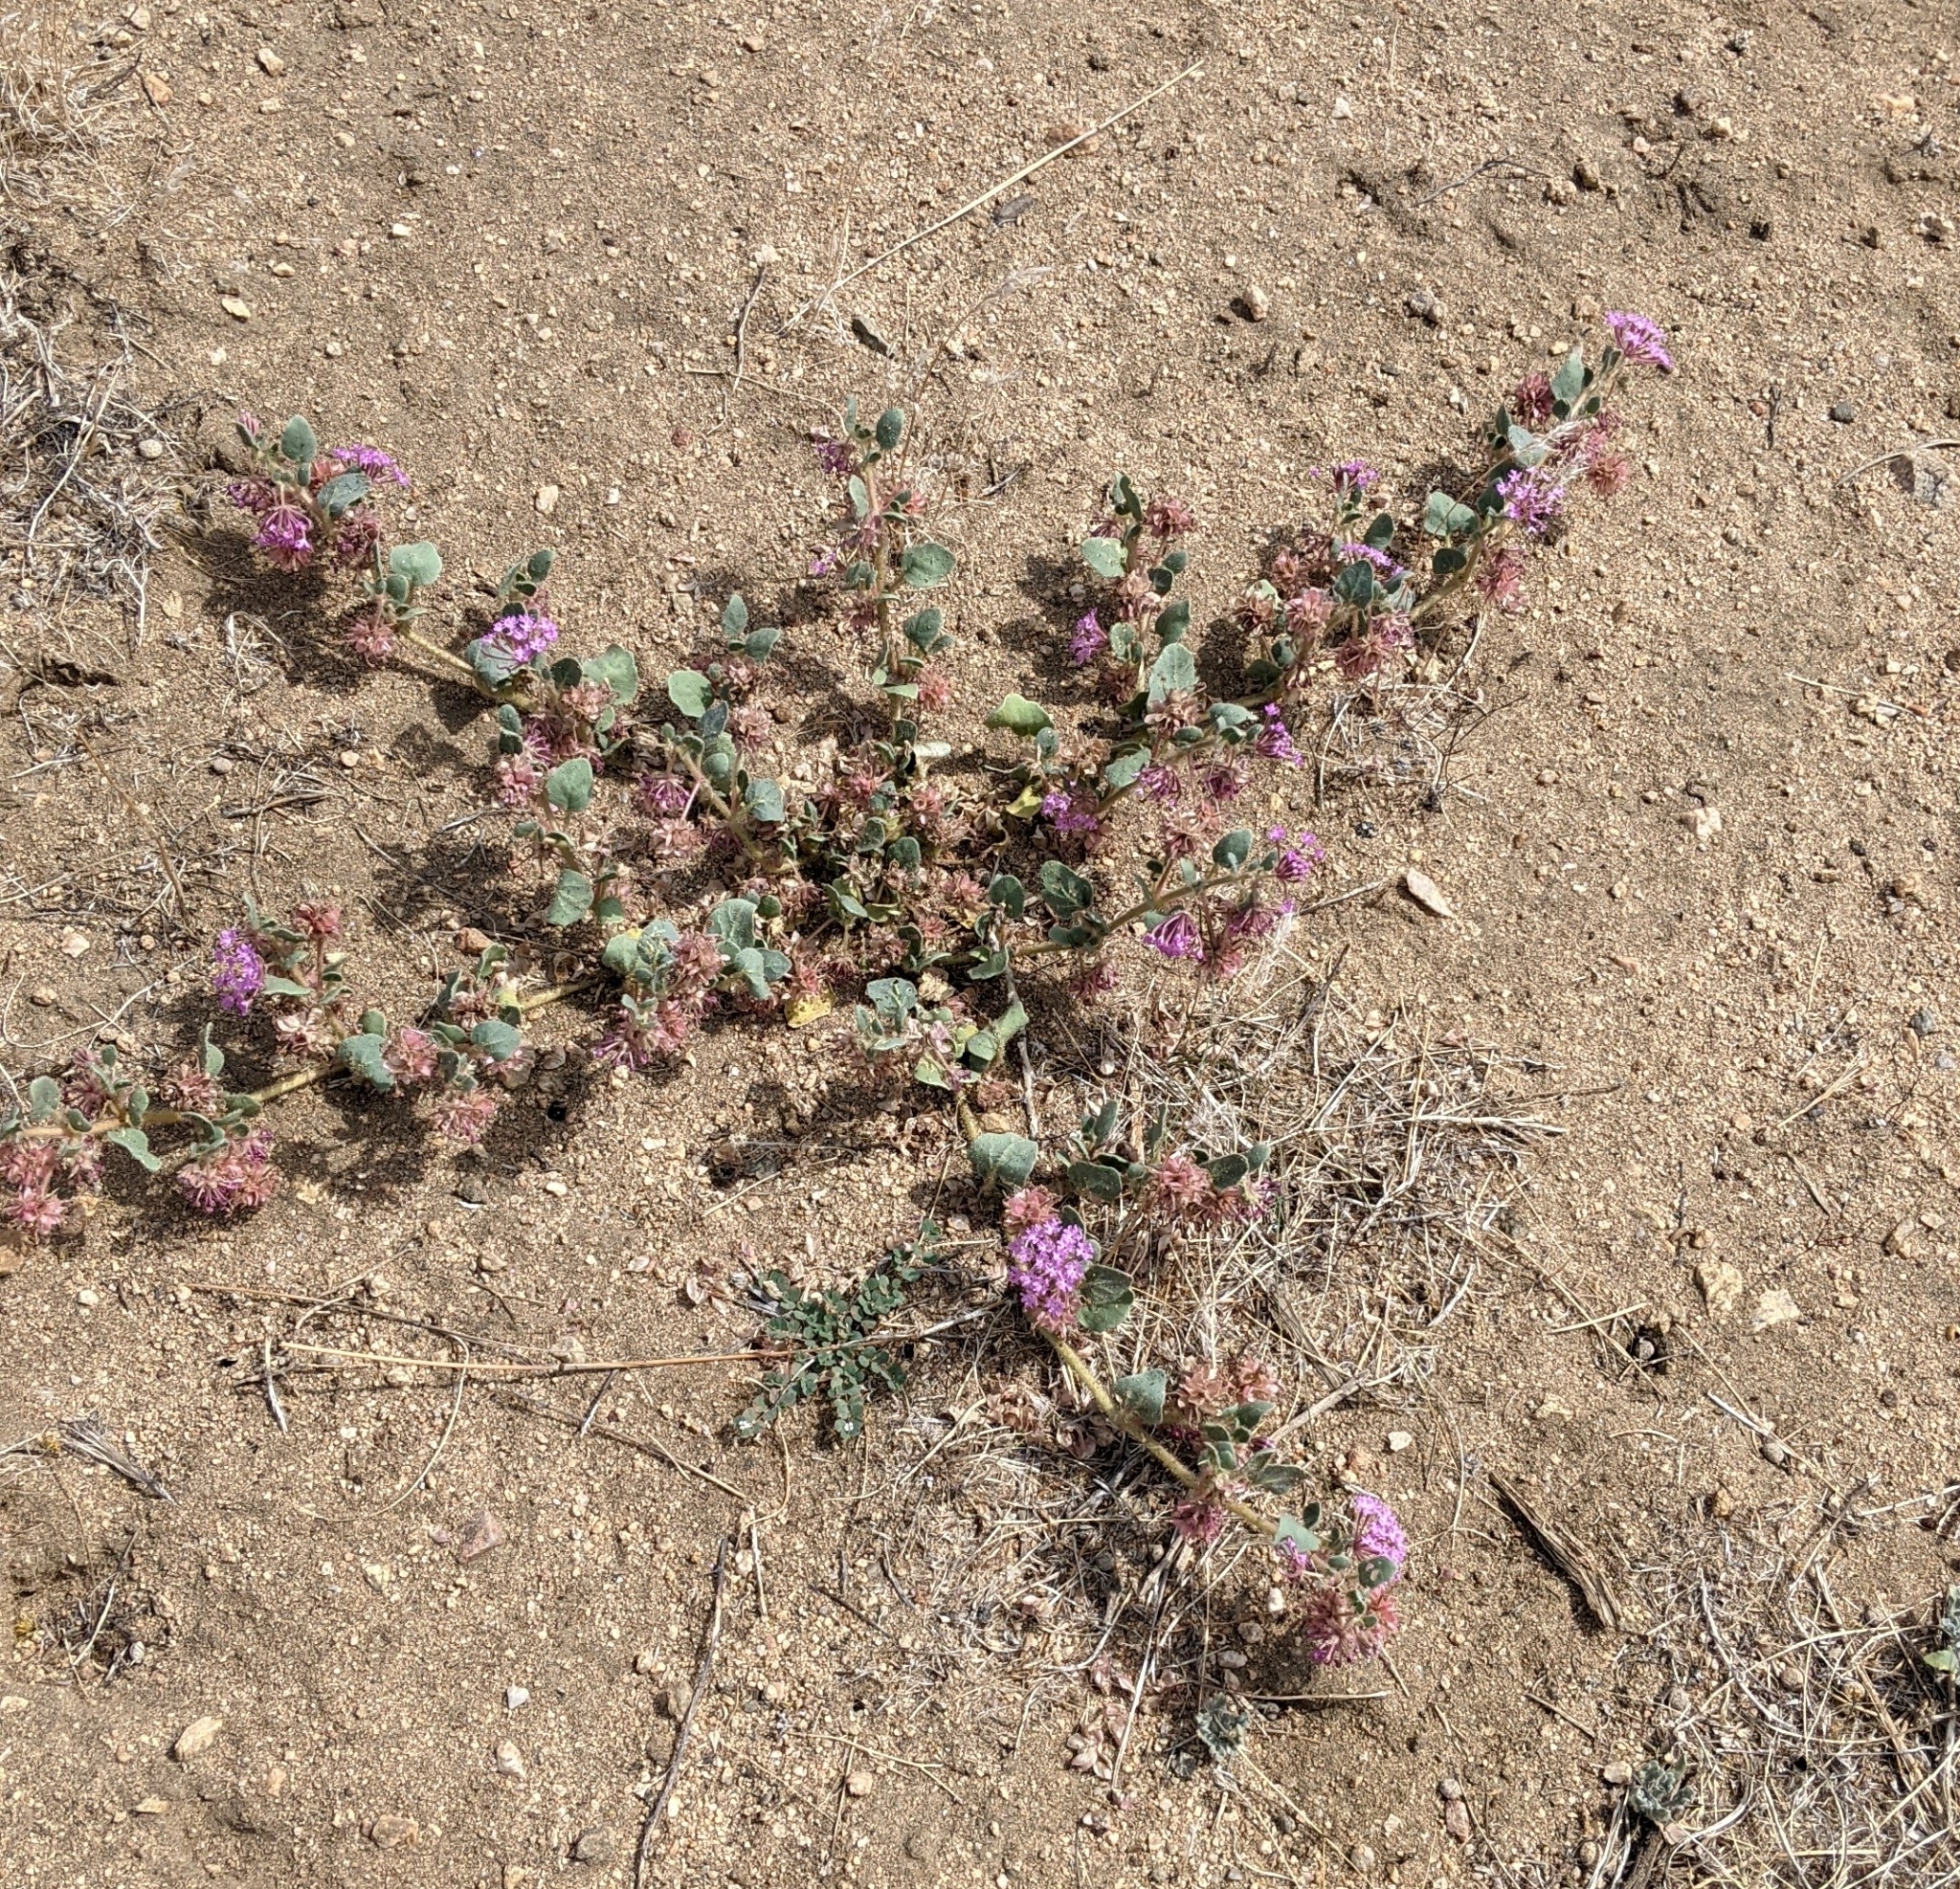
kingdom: Plantae
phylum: Tracheophyta
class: Magnoliopsida
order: Caryophyllales
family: Nyctaginaceae
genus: Abronia
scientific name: Abronia villosa
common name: Desert sand-verbena
